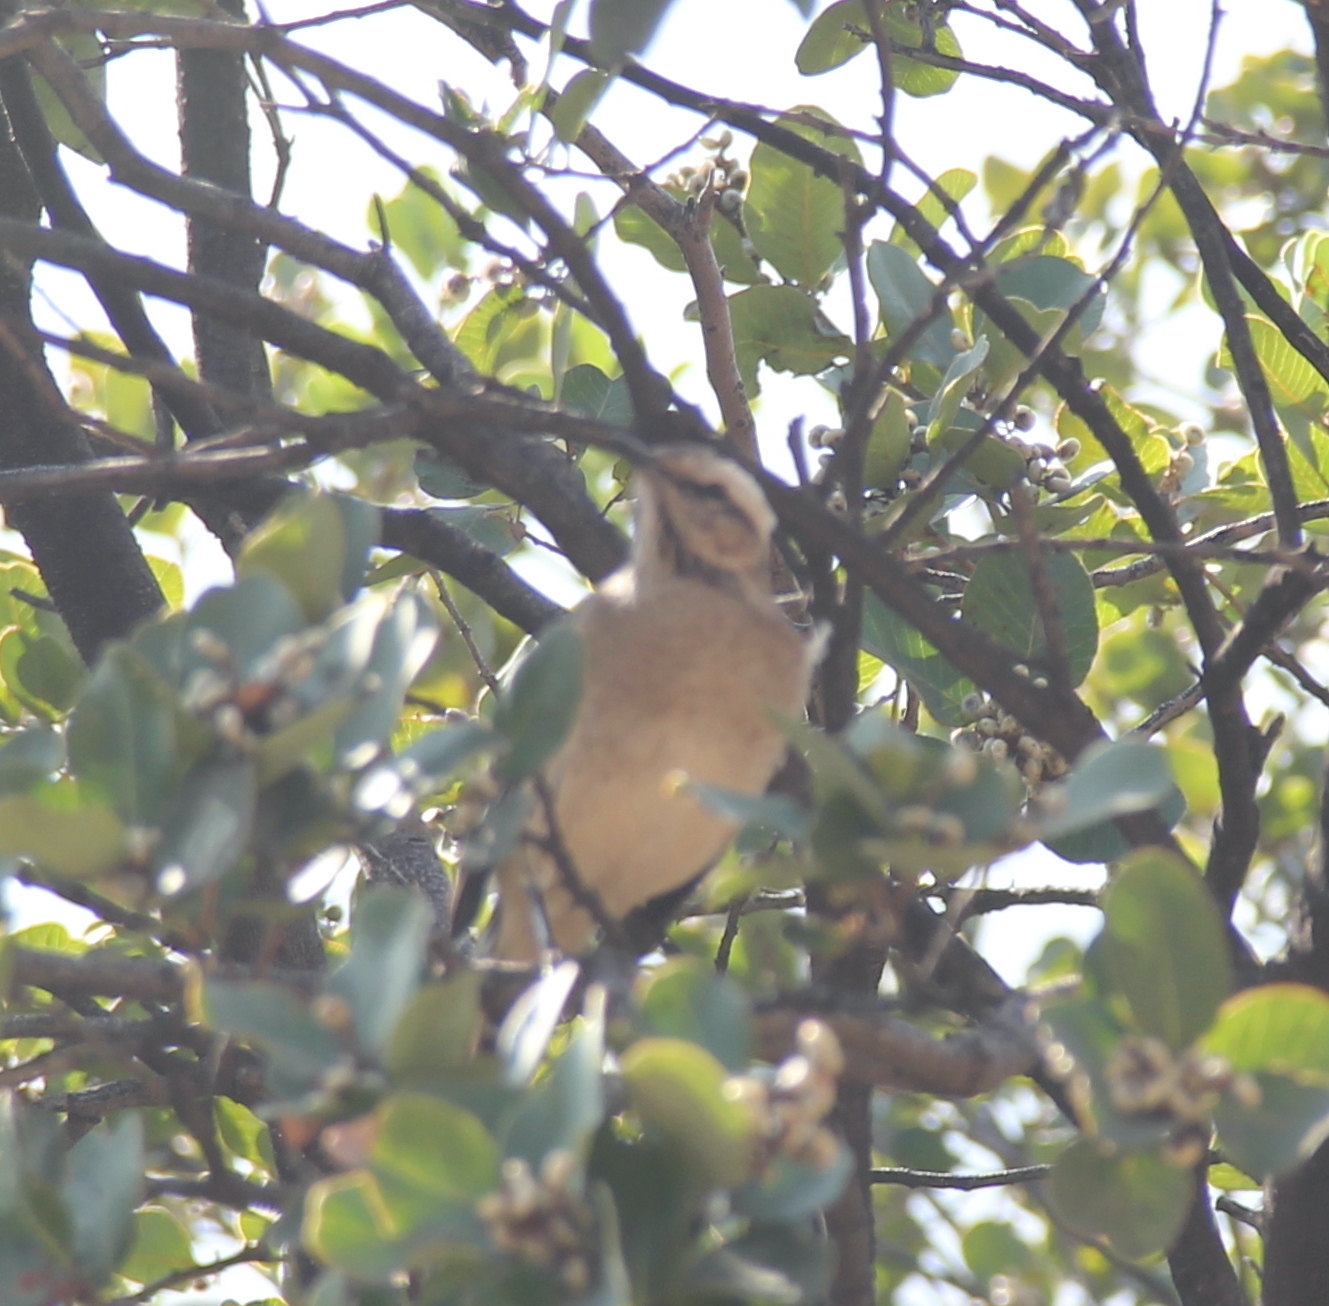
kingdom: Animalia
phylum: Chordata
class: Aves
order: Passeriformes
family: Mimidae
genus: Mimus
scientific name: Mimus thenca
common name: Chilean mockingbird
